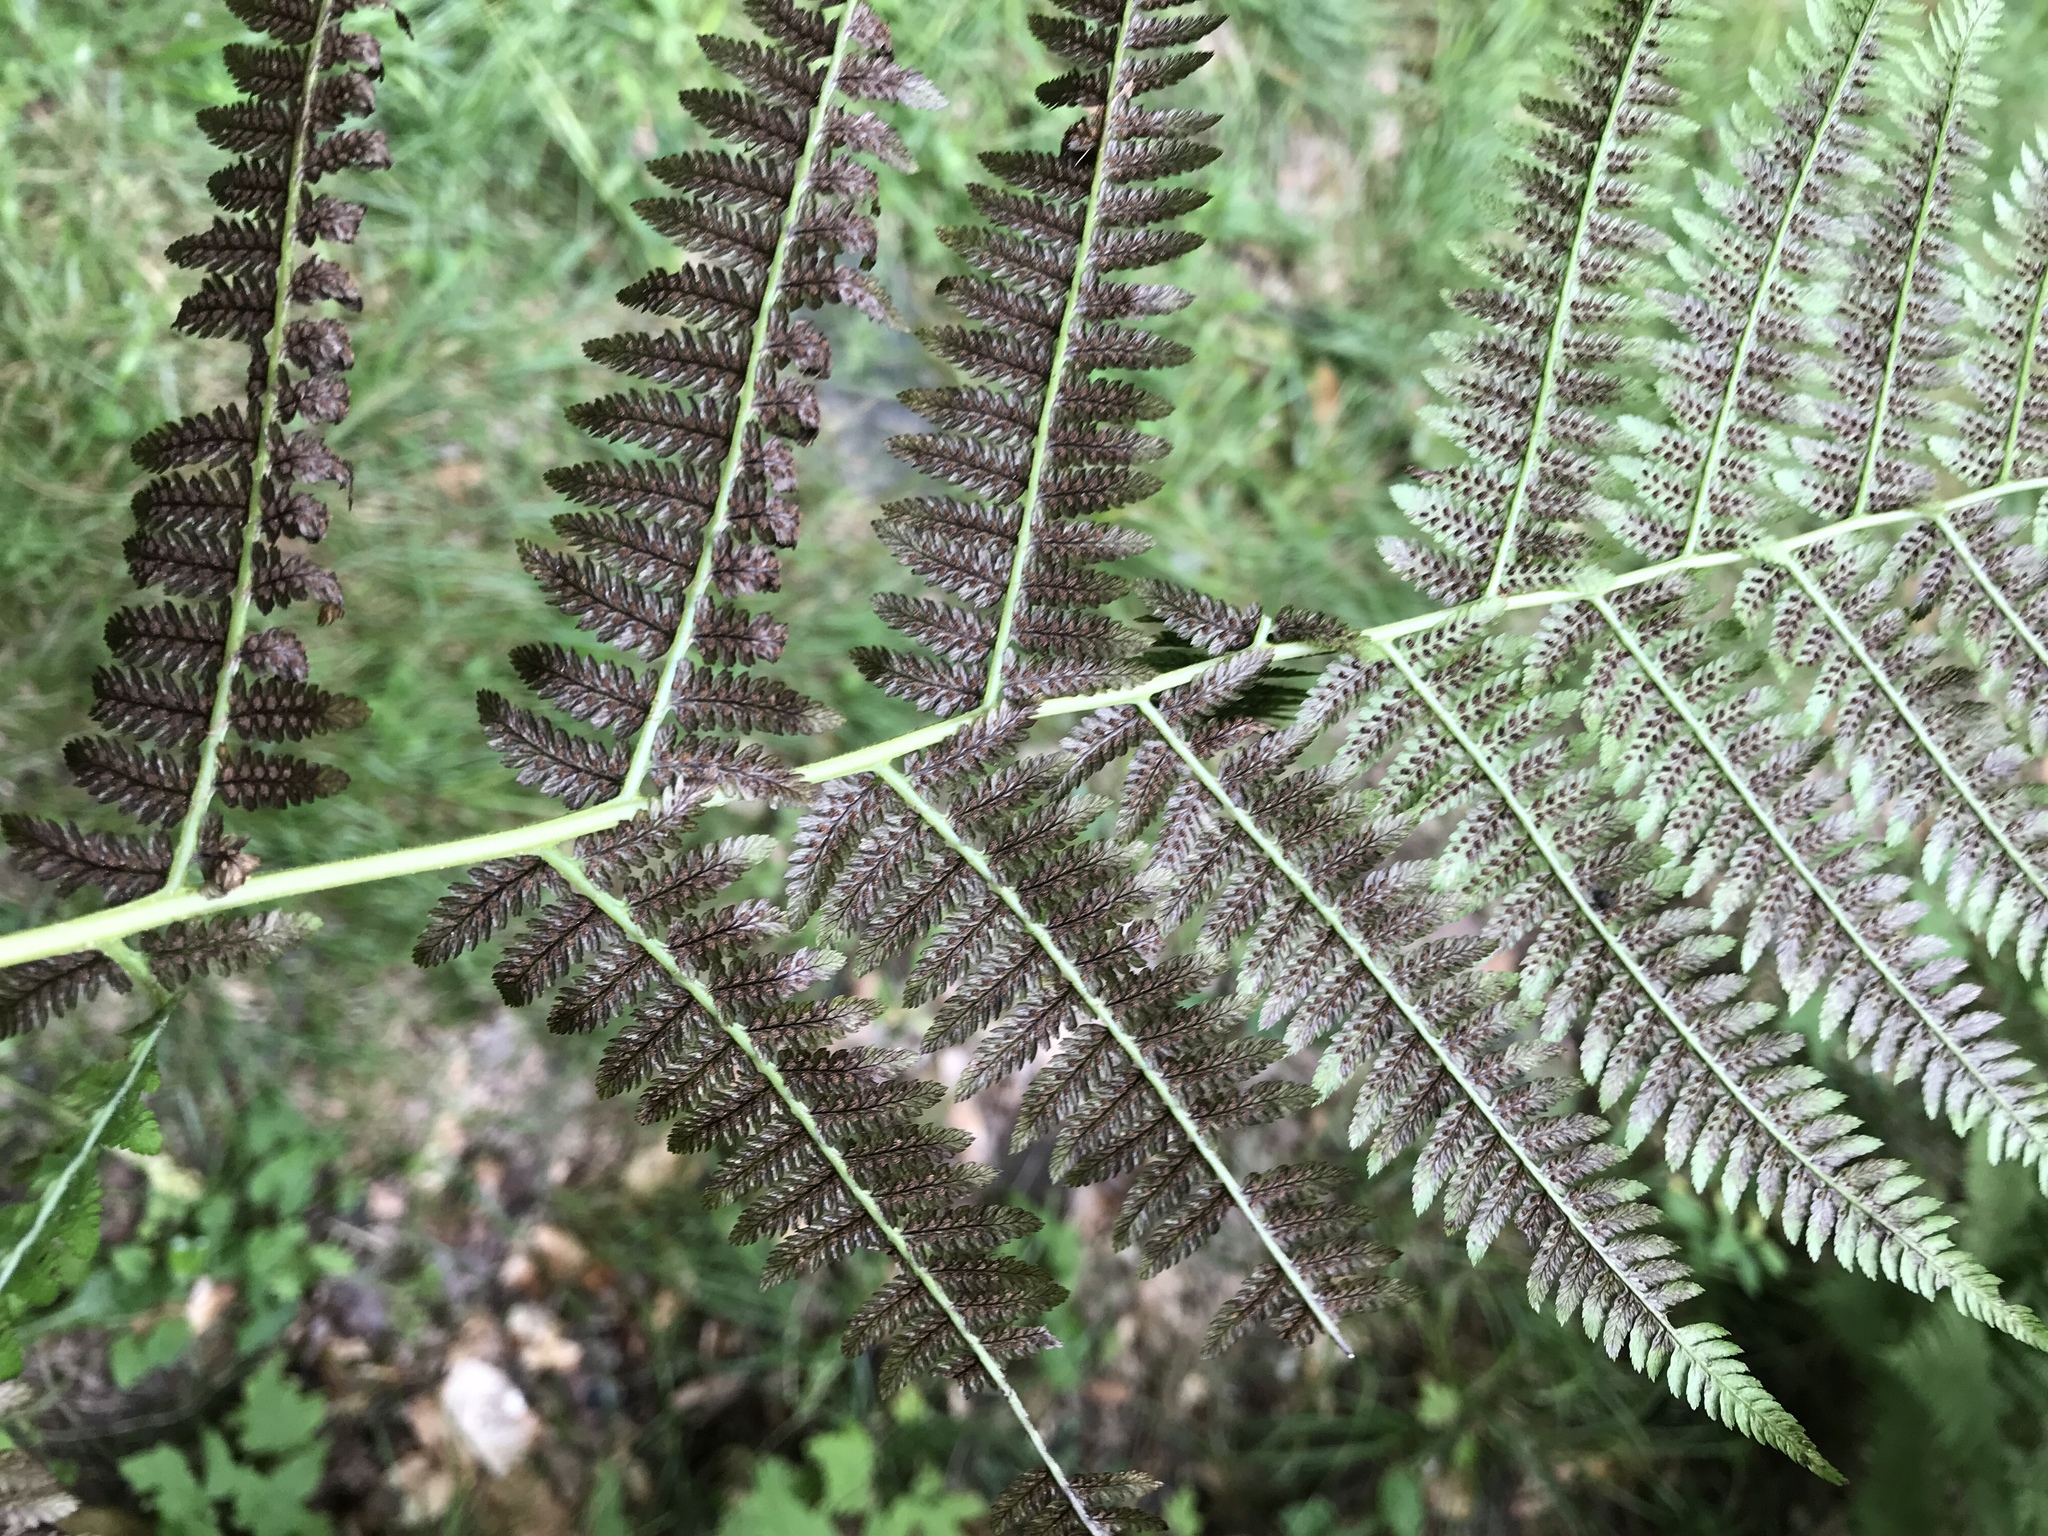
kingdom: Plantae
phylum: Tracheophyta
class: Polypodiopsida
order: Polypodiales
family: Athyriaceae
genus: Athyrium
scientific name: Athyrium angustum
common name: Northern lady fern
